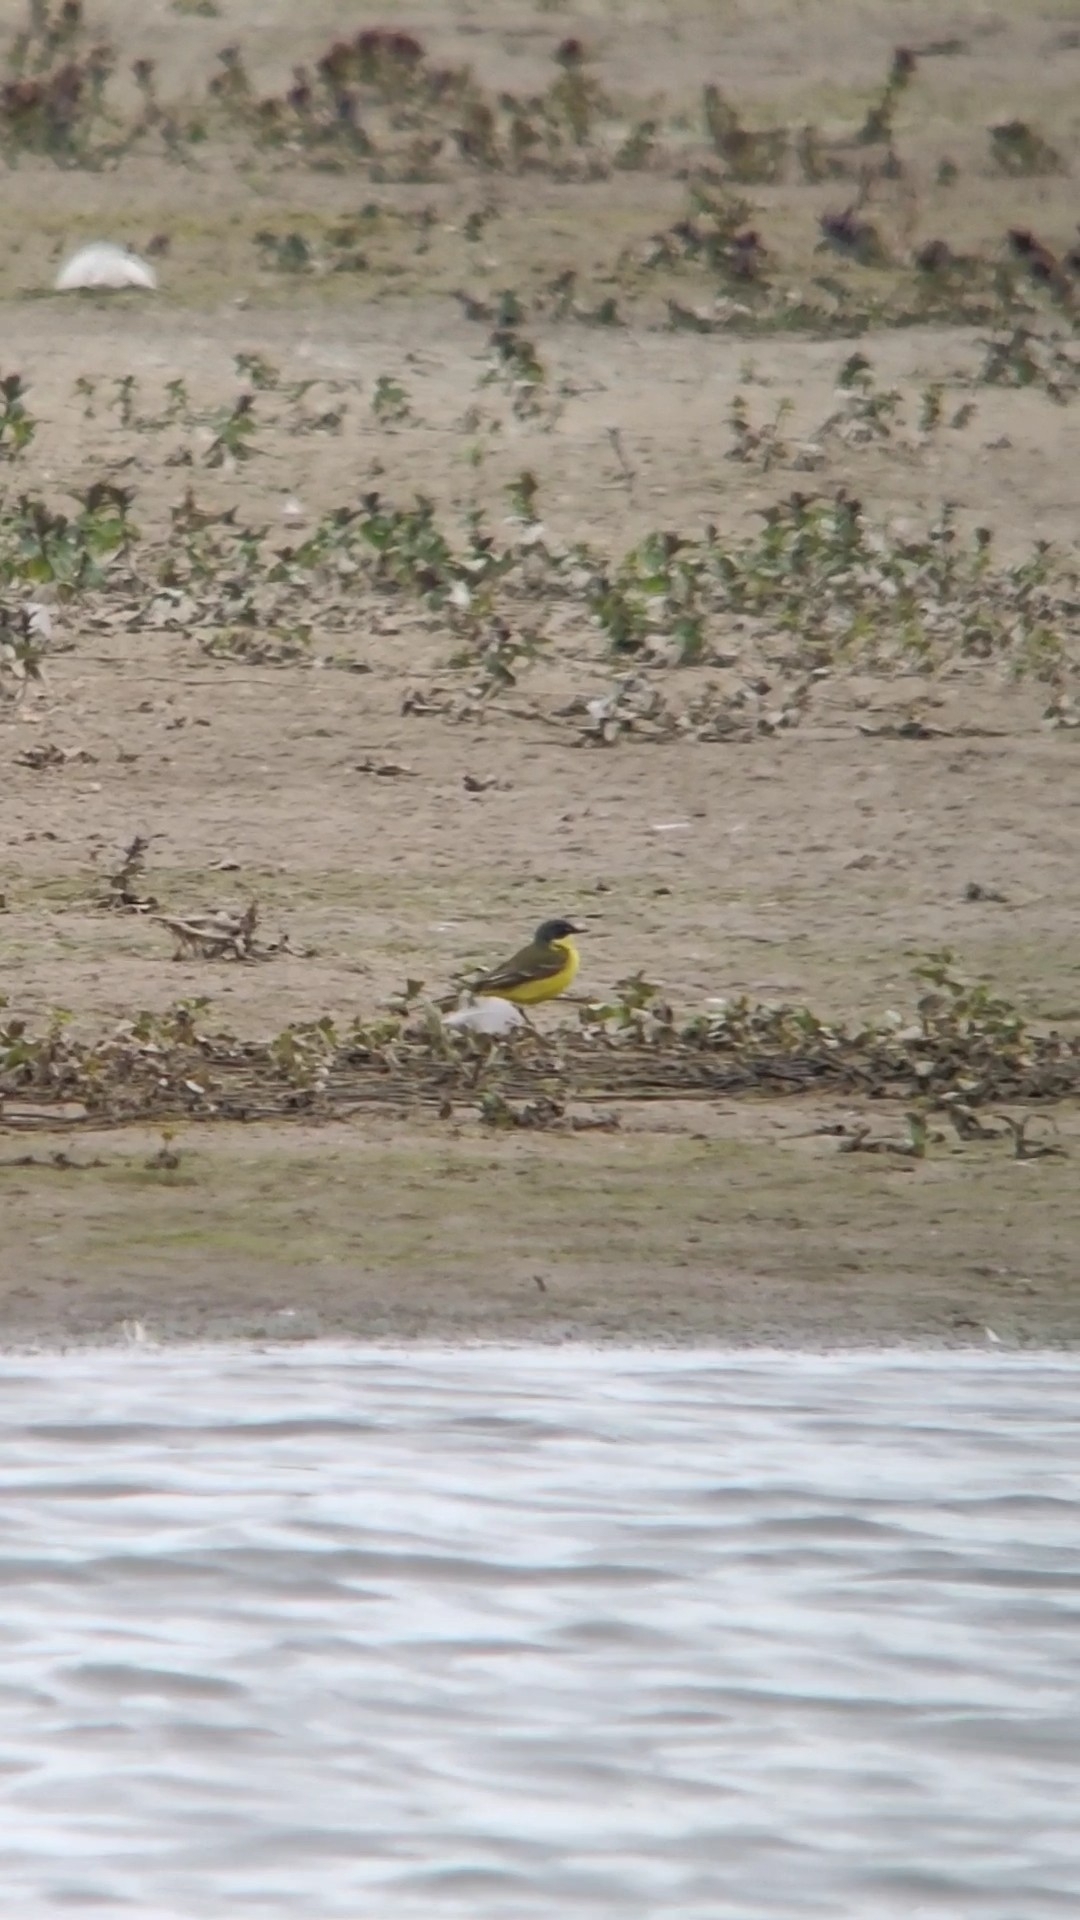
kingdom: Animalia
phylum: Chordata
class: Aves
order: Passeriformes
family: Motacillidae
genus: Motacilla
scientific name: Motacilla flava
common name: Western yellow wagtail
